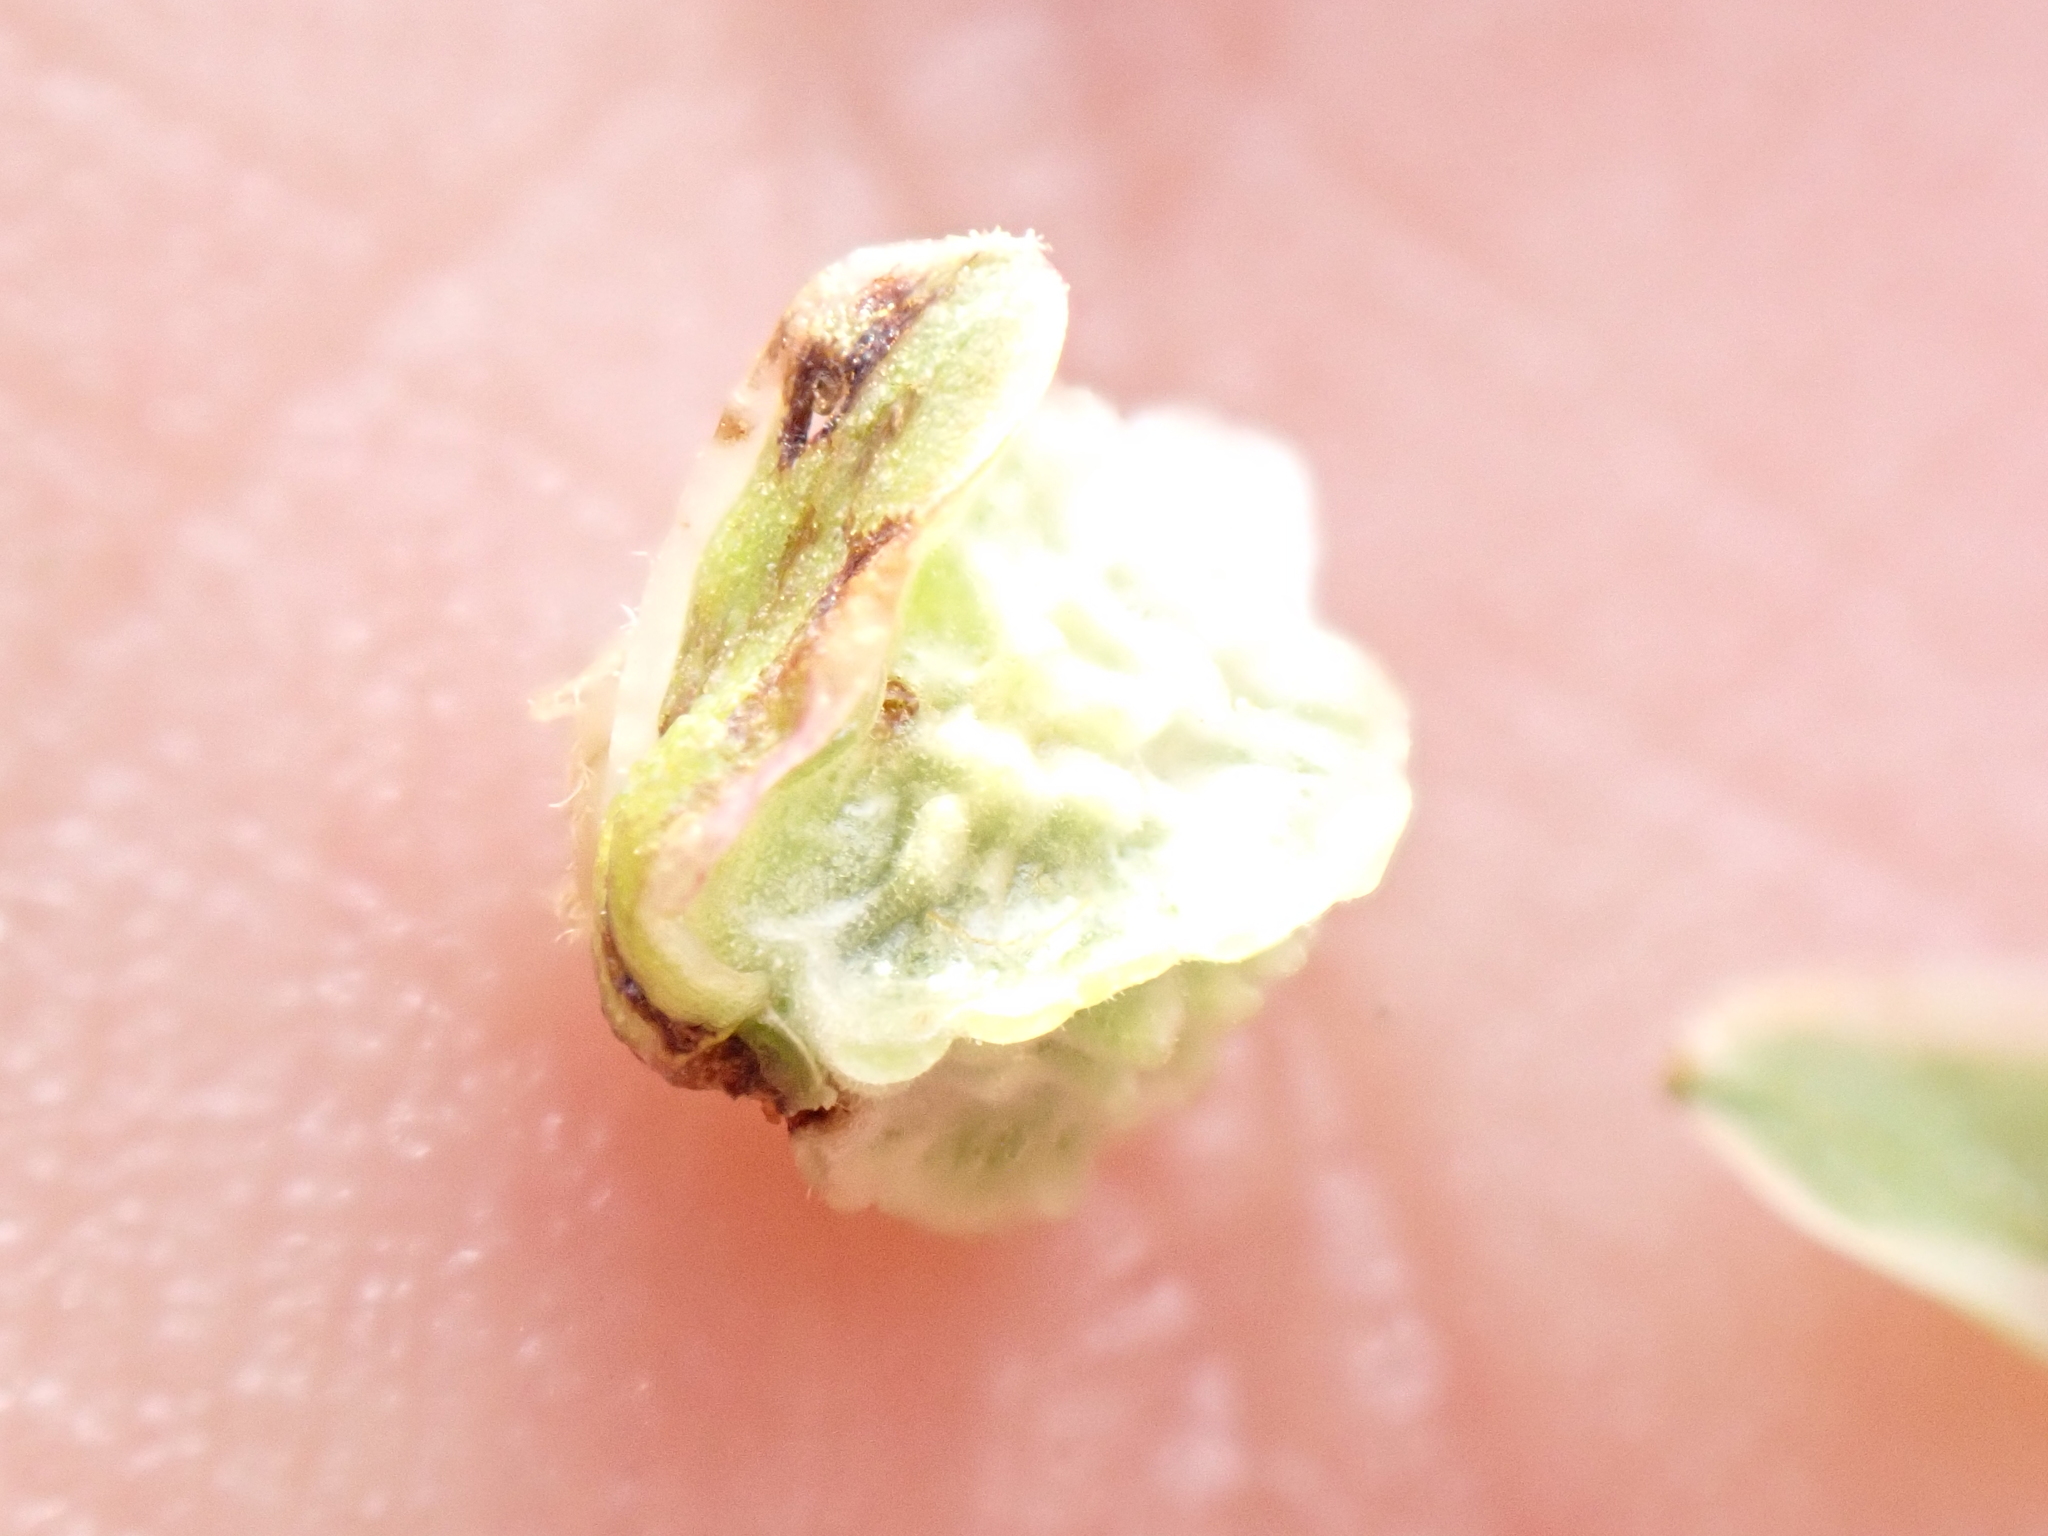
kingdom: Plantae
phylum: Tracheophyta
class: Magnoliopsida
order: Rosales
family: Rosaceae
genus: Poterium
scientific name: Poterium sanguisorba
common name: Salad burnet
